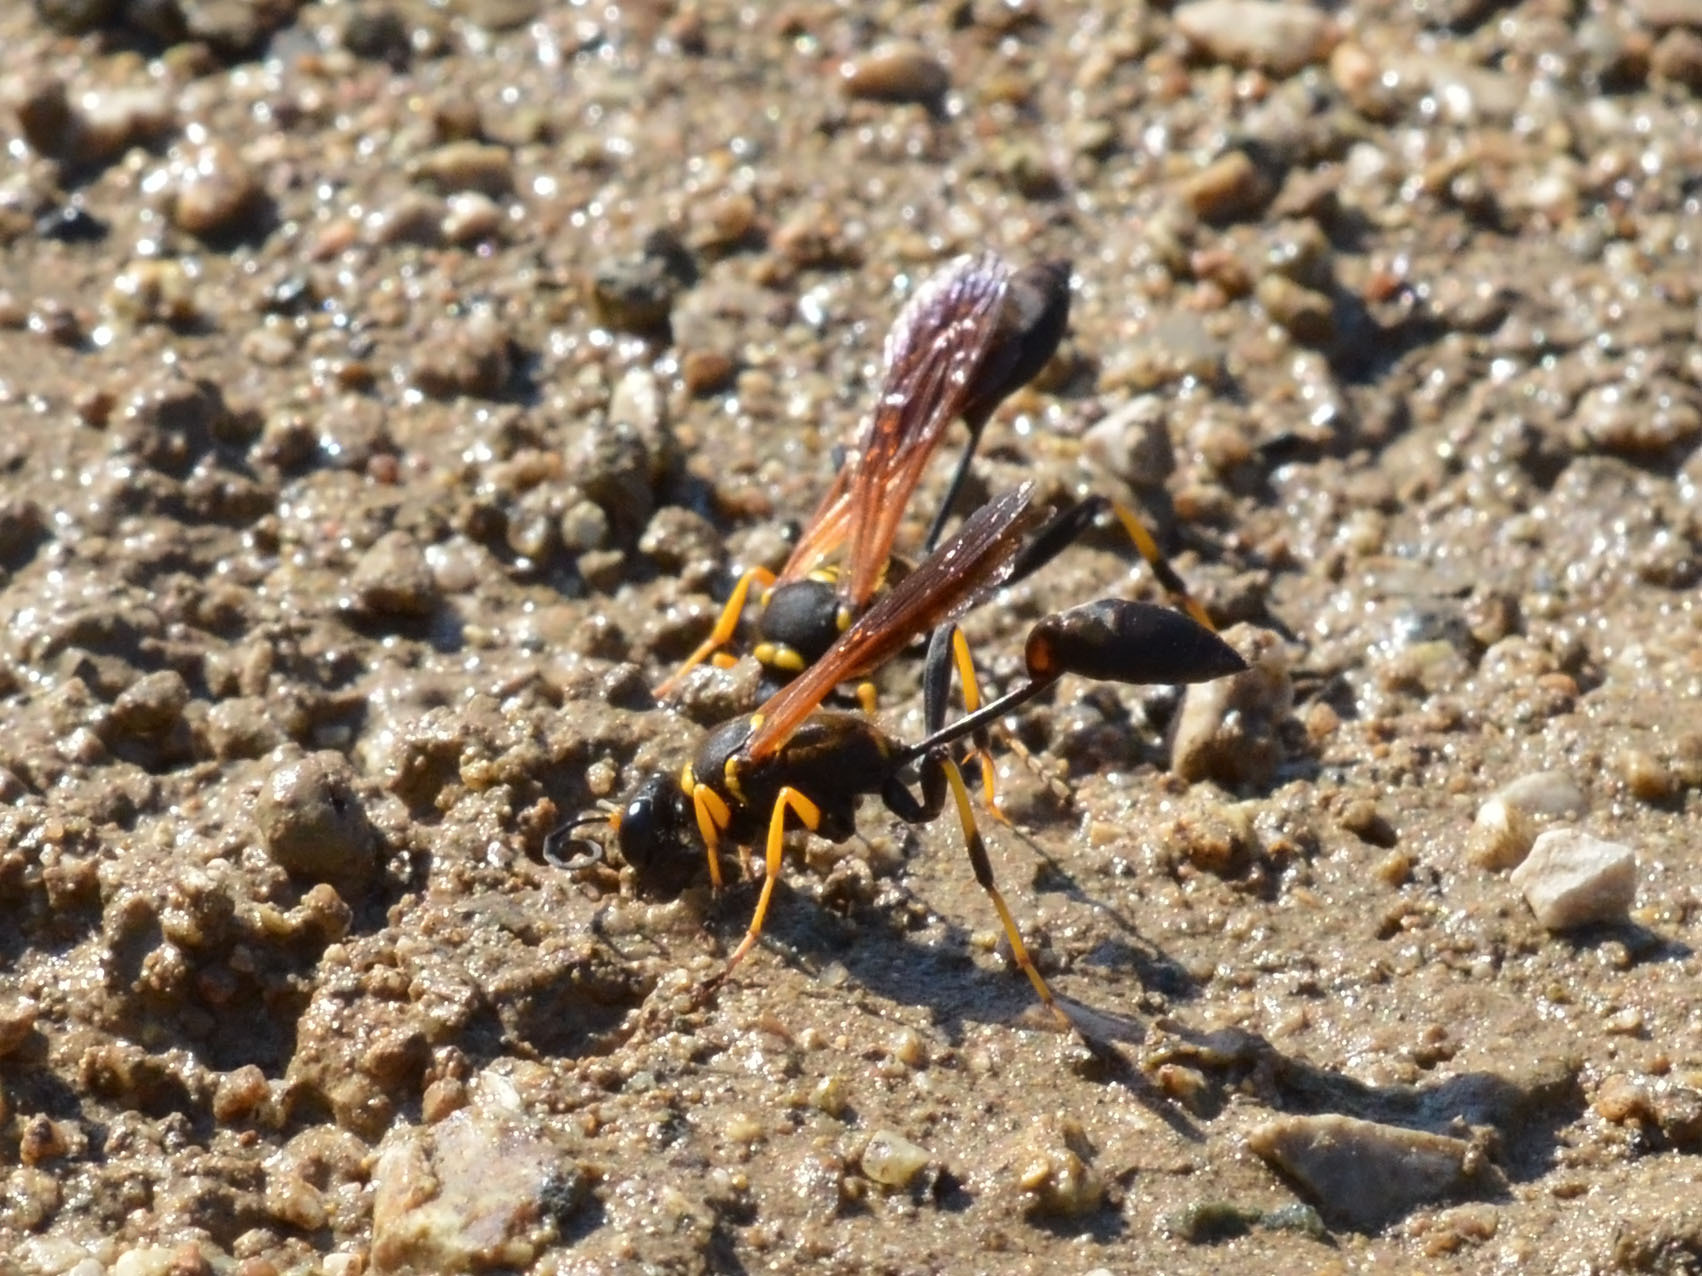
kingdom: Animalia
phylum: Arthropoda
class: Insecta
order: Hymenoptera
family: Sphecidae
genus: Sceliphron
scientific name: Sceliphron caementarium
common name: Mud dauber
